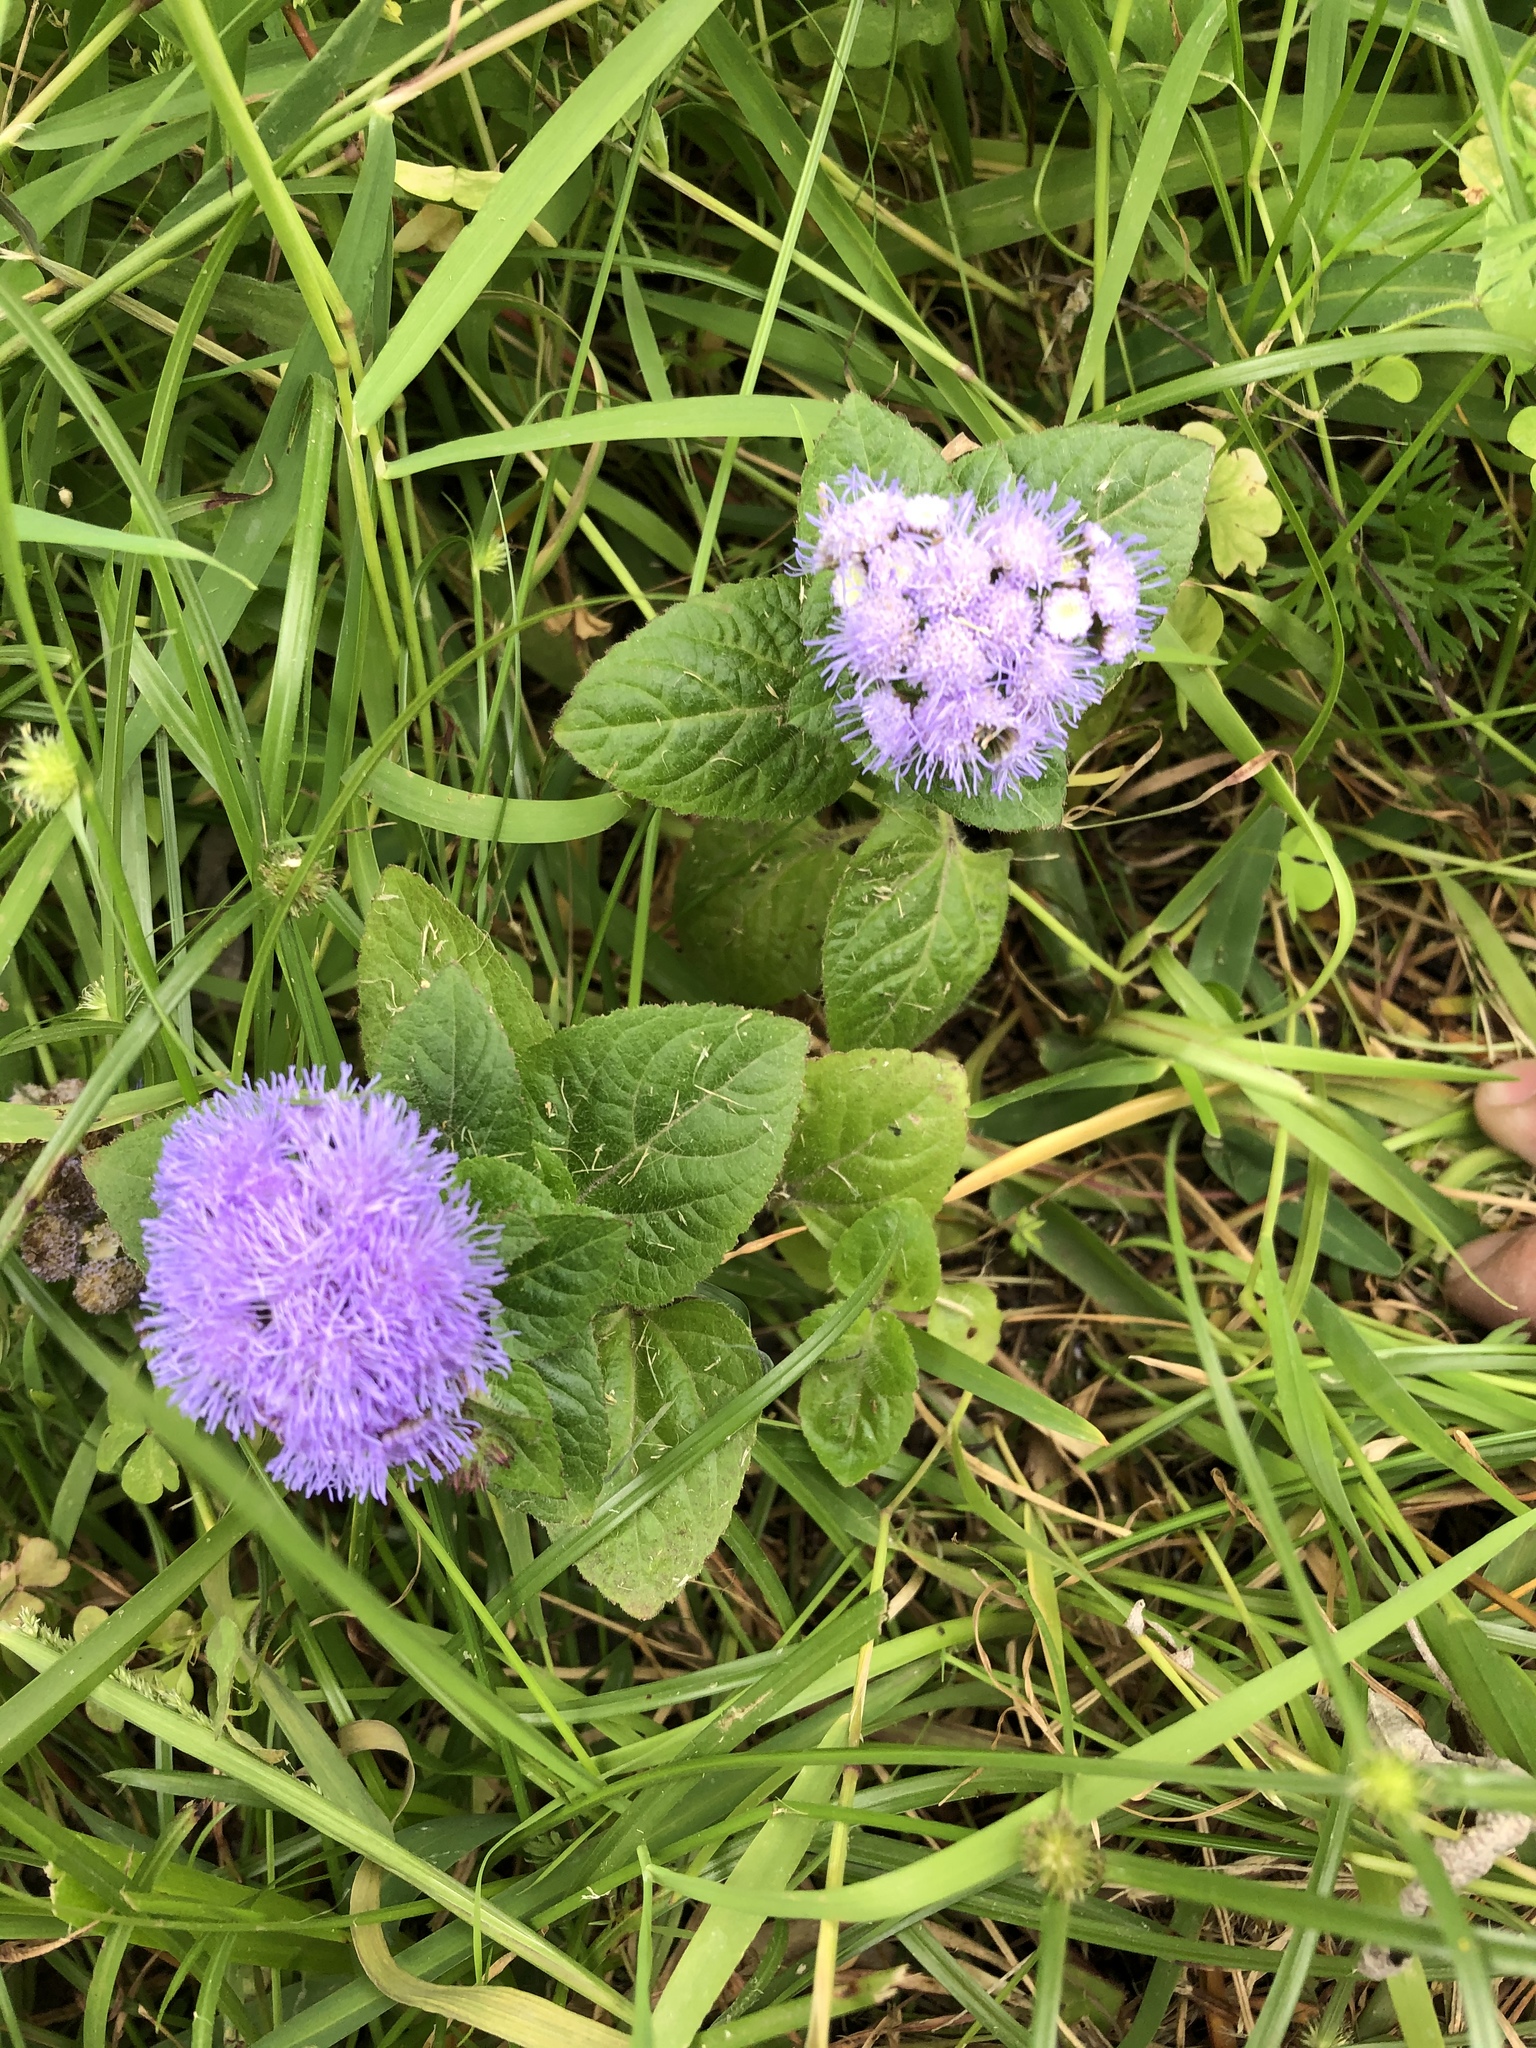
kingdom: Plantae
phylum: Tracheophyta
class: Magnoliopsida
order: Asterales
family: Asteraceae
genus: Ageratum
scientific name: Ageratum houstonianum
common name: Bluemink
